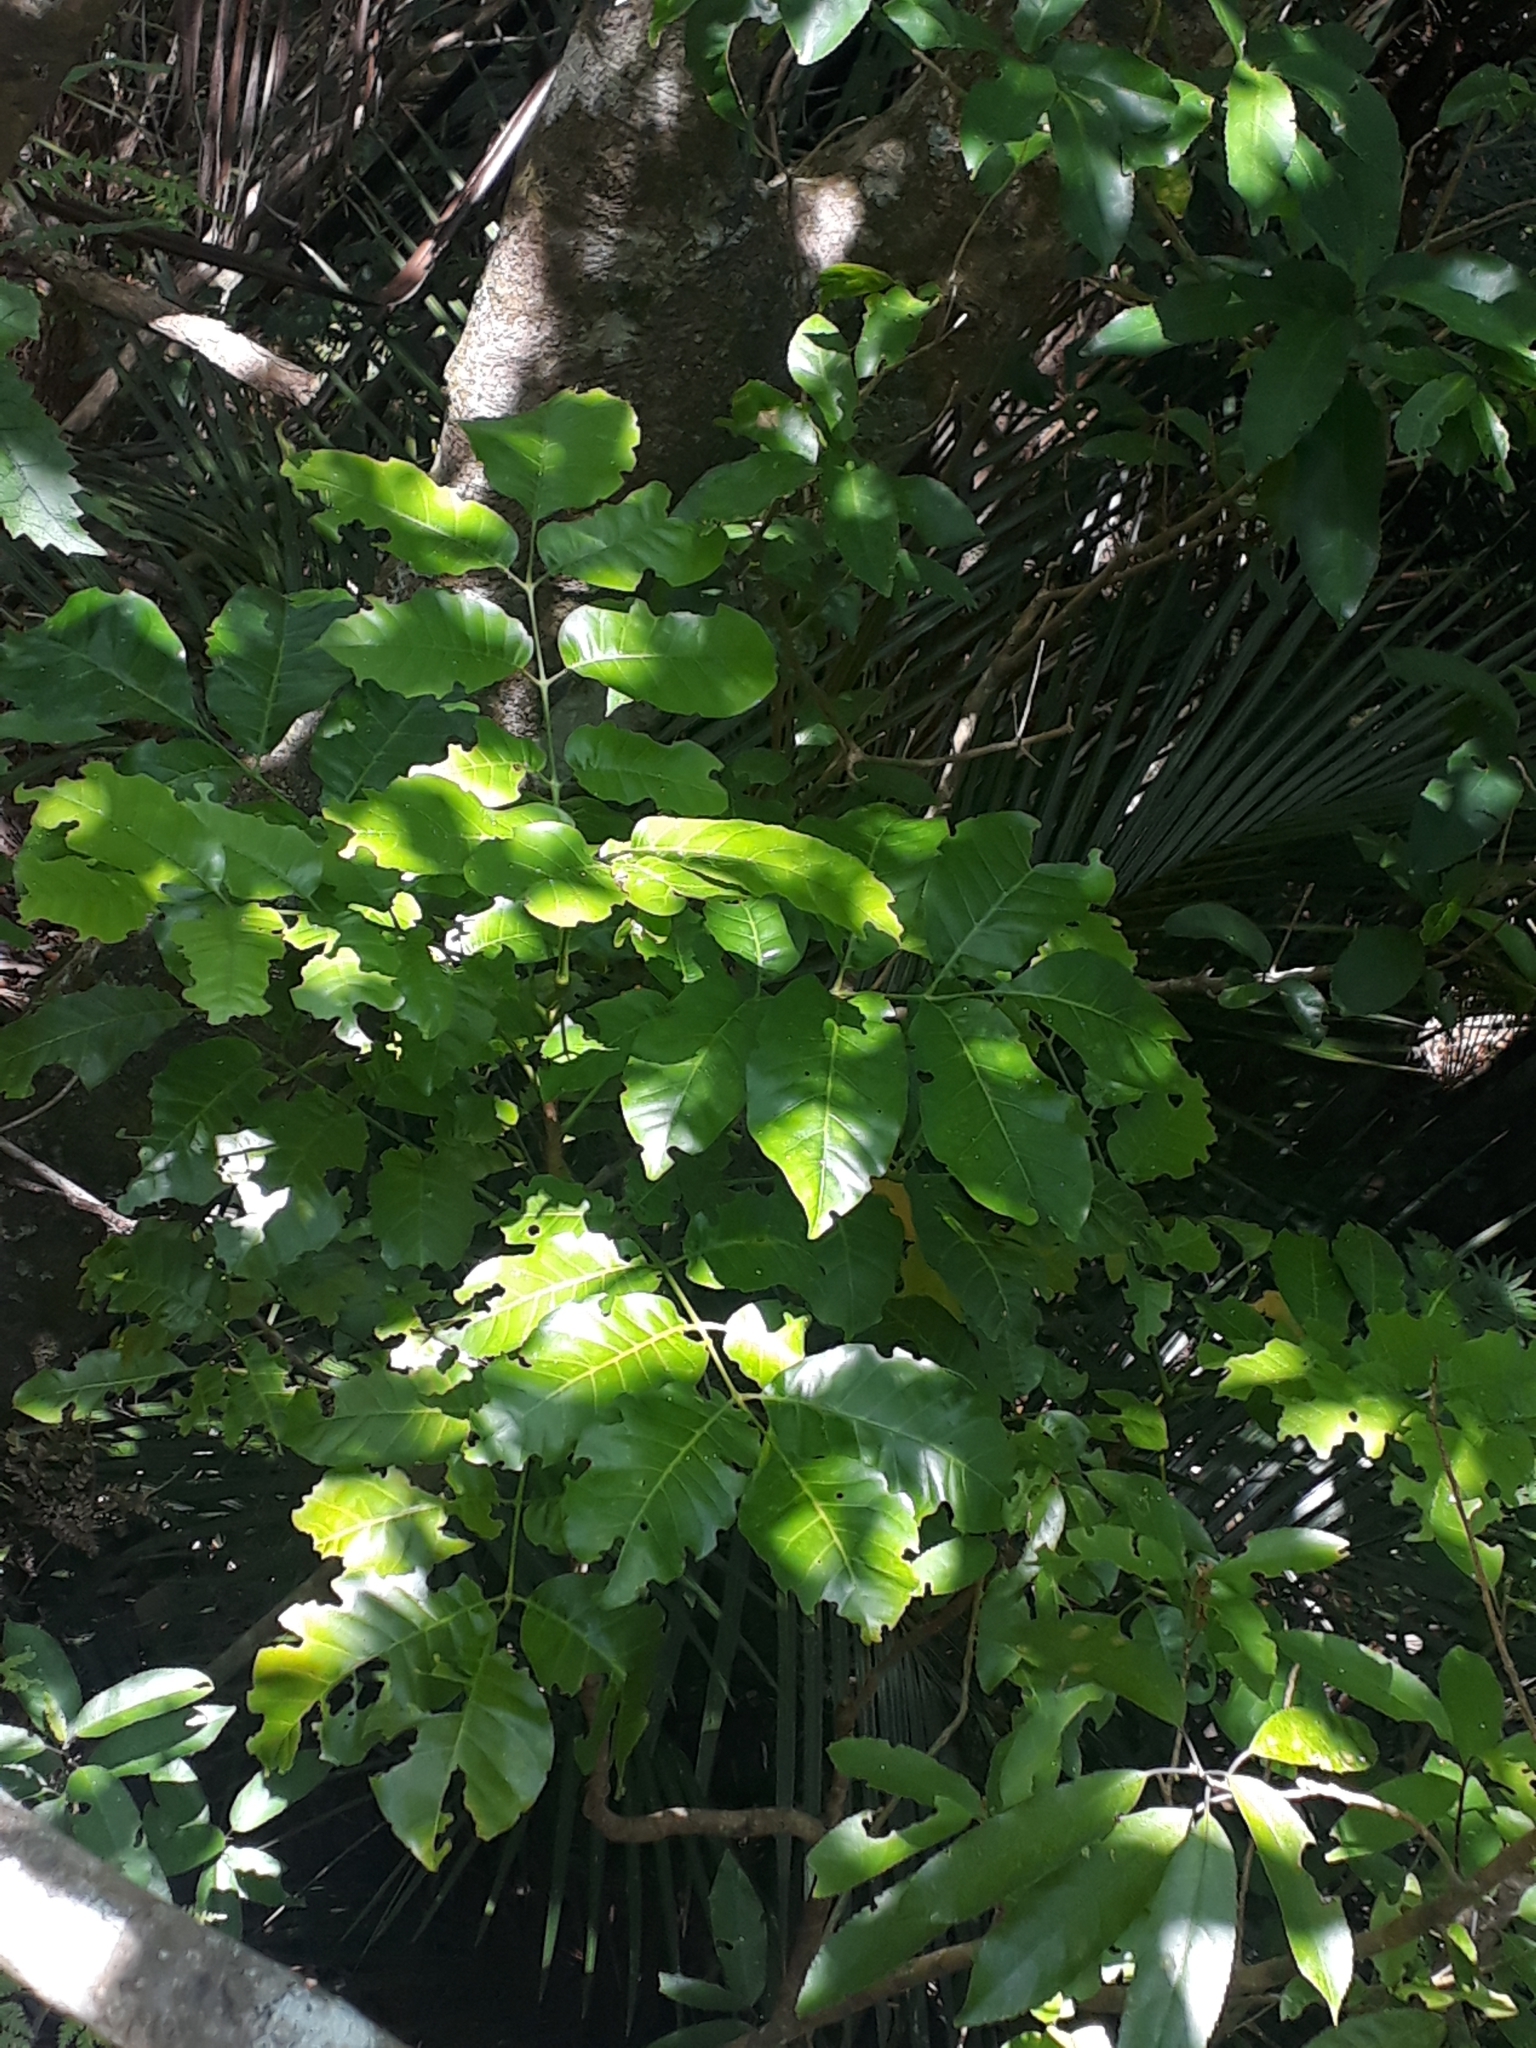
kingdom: Plantae
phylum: Tracheophyta
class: Magnoliopsida
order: Sapindales
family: Meliaceae
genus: Didymocheton
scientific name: Didymocheton spectabilis
